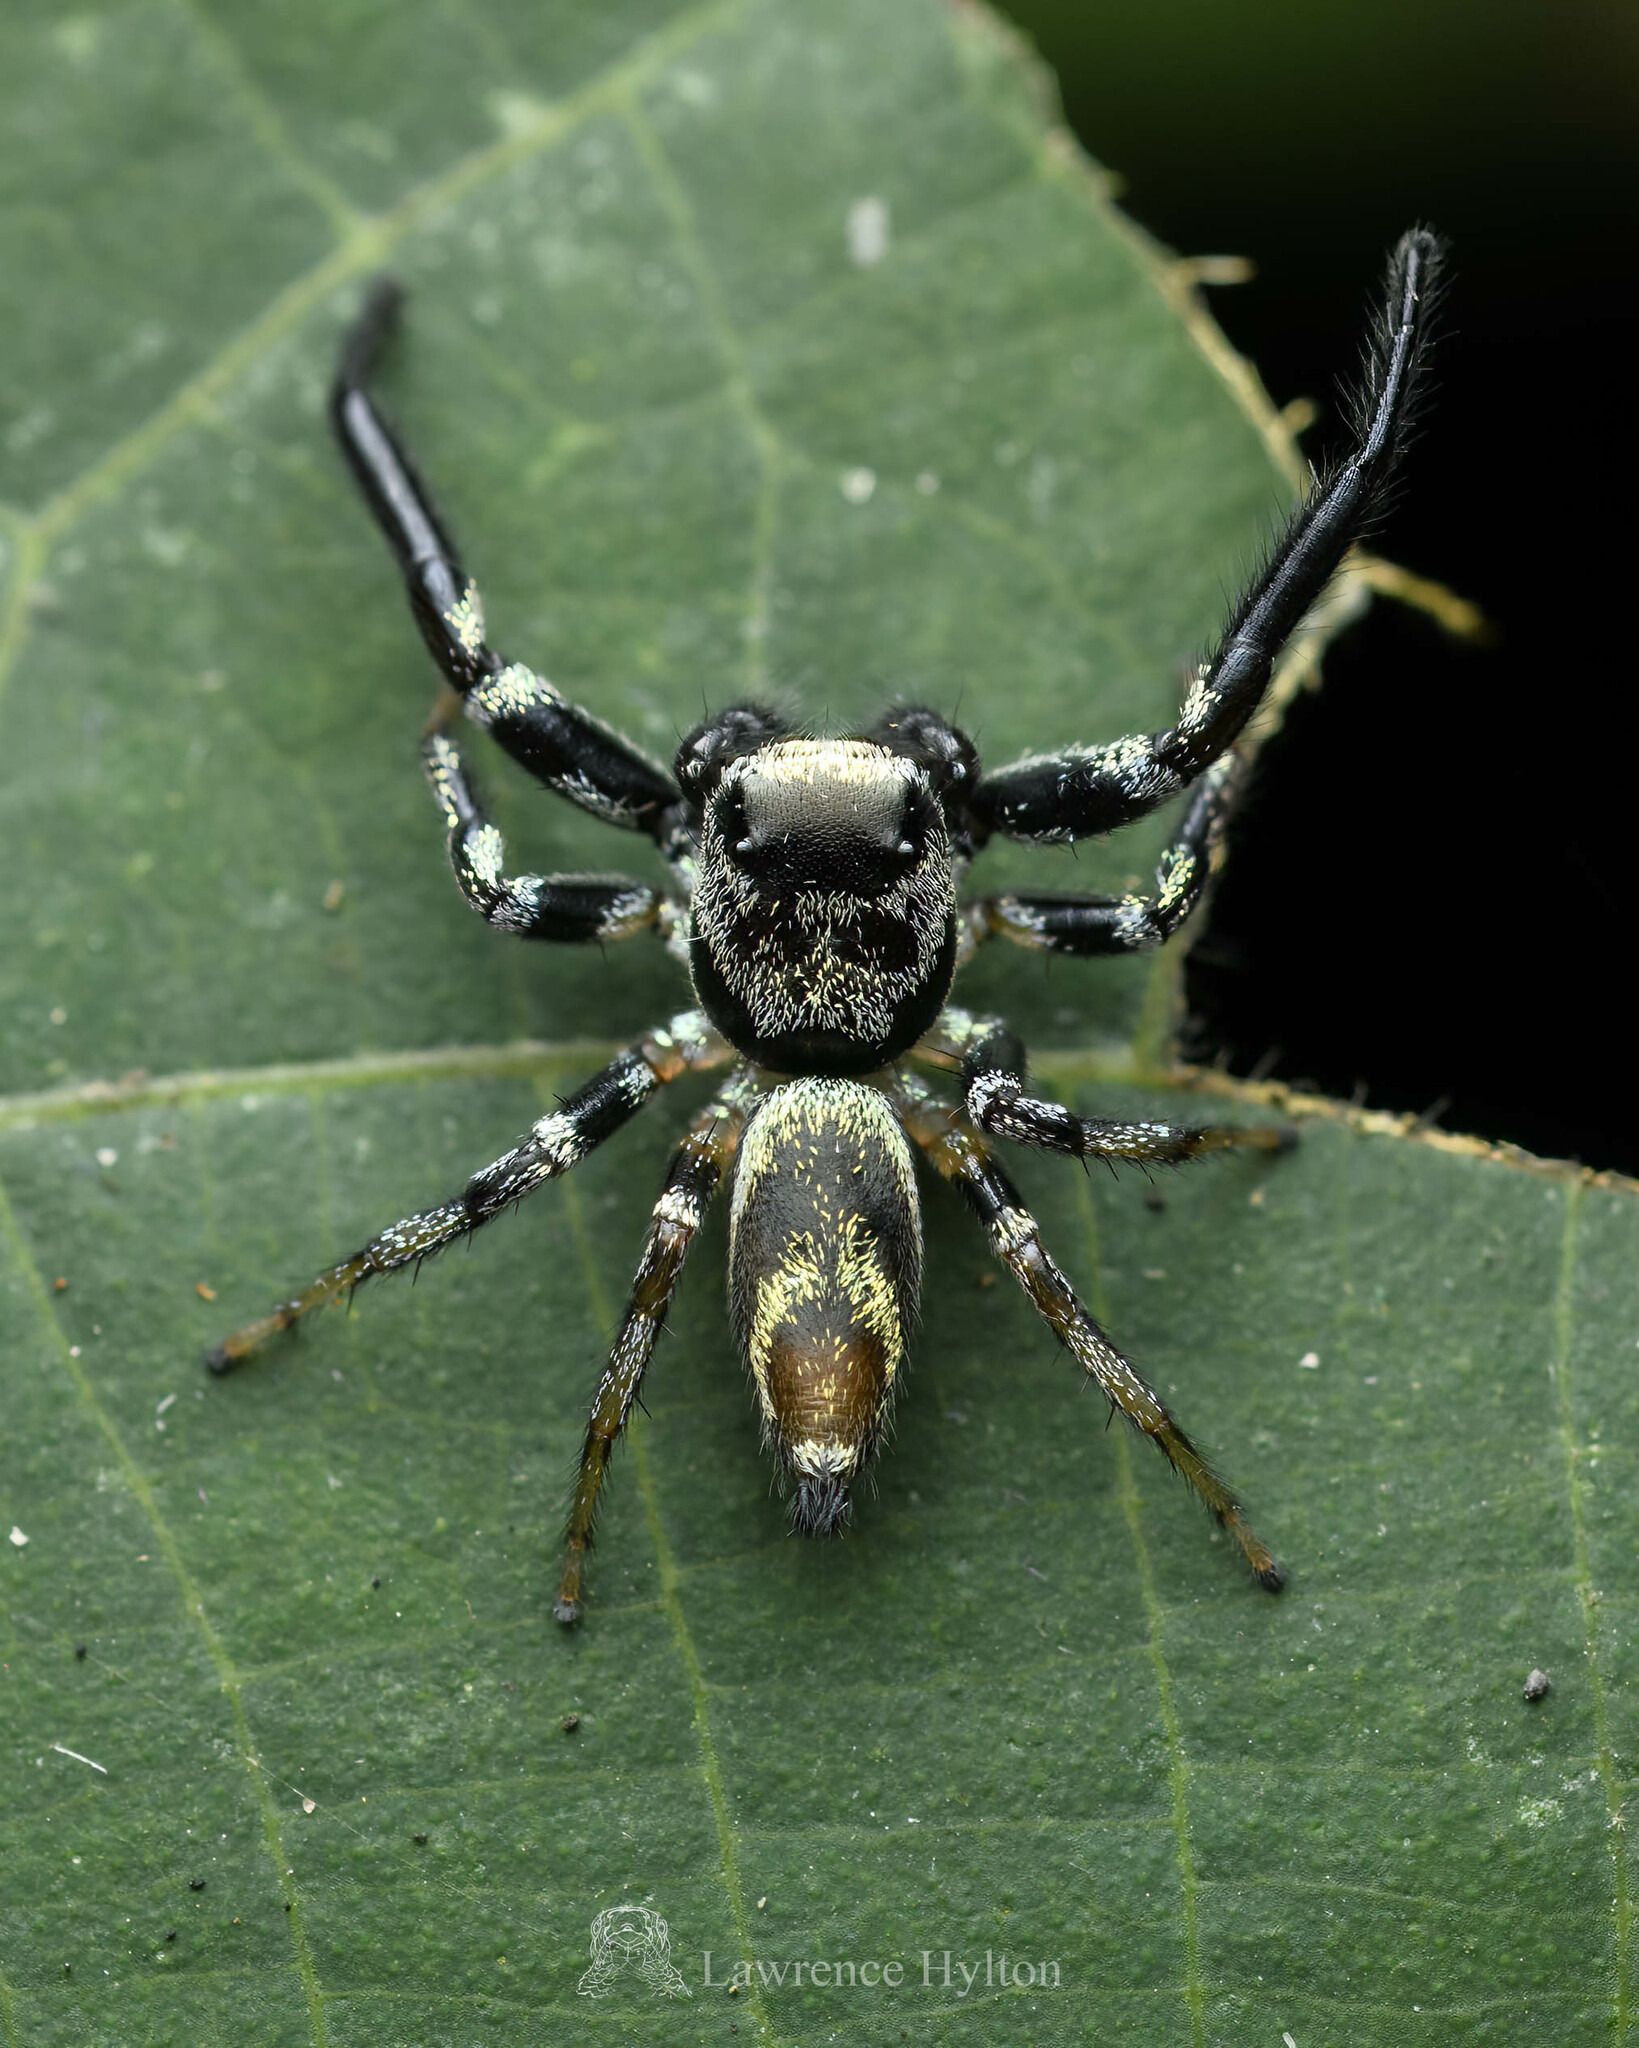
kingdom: Animalia
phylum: Arthropoda
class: Arachnida
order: Araneae
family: Salticidae
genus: Thiania
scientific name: Thiania bhamoensis
